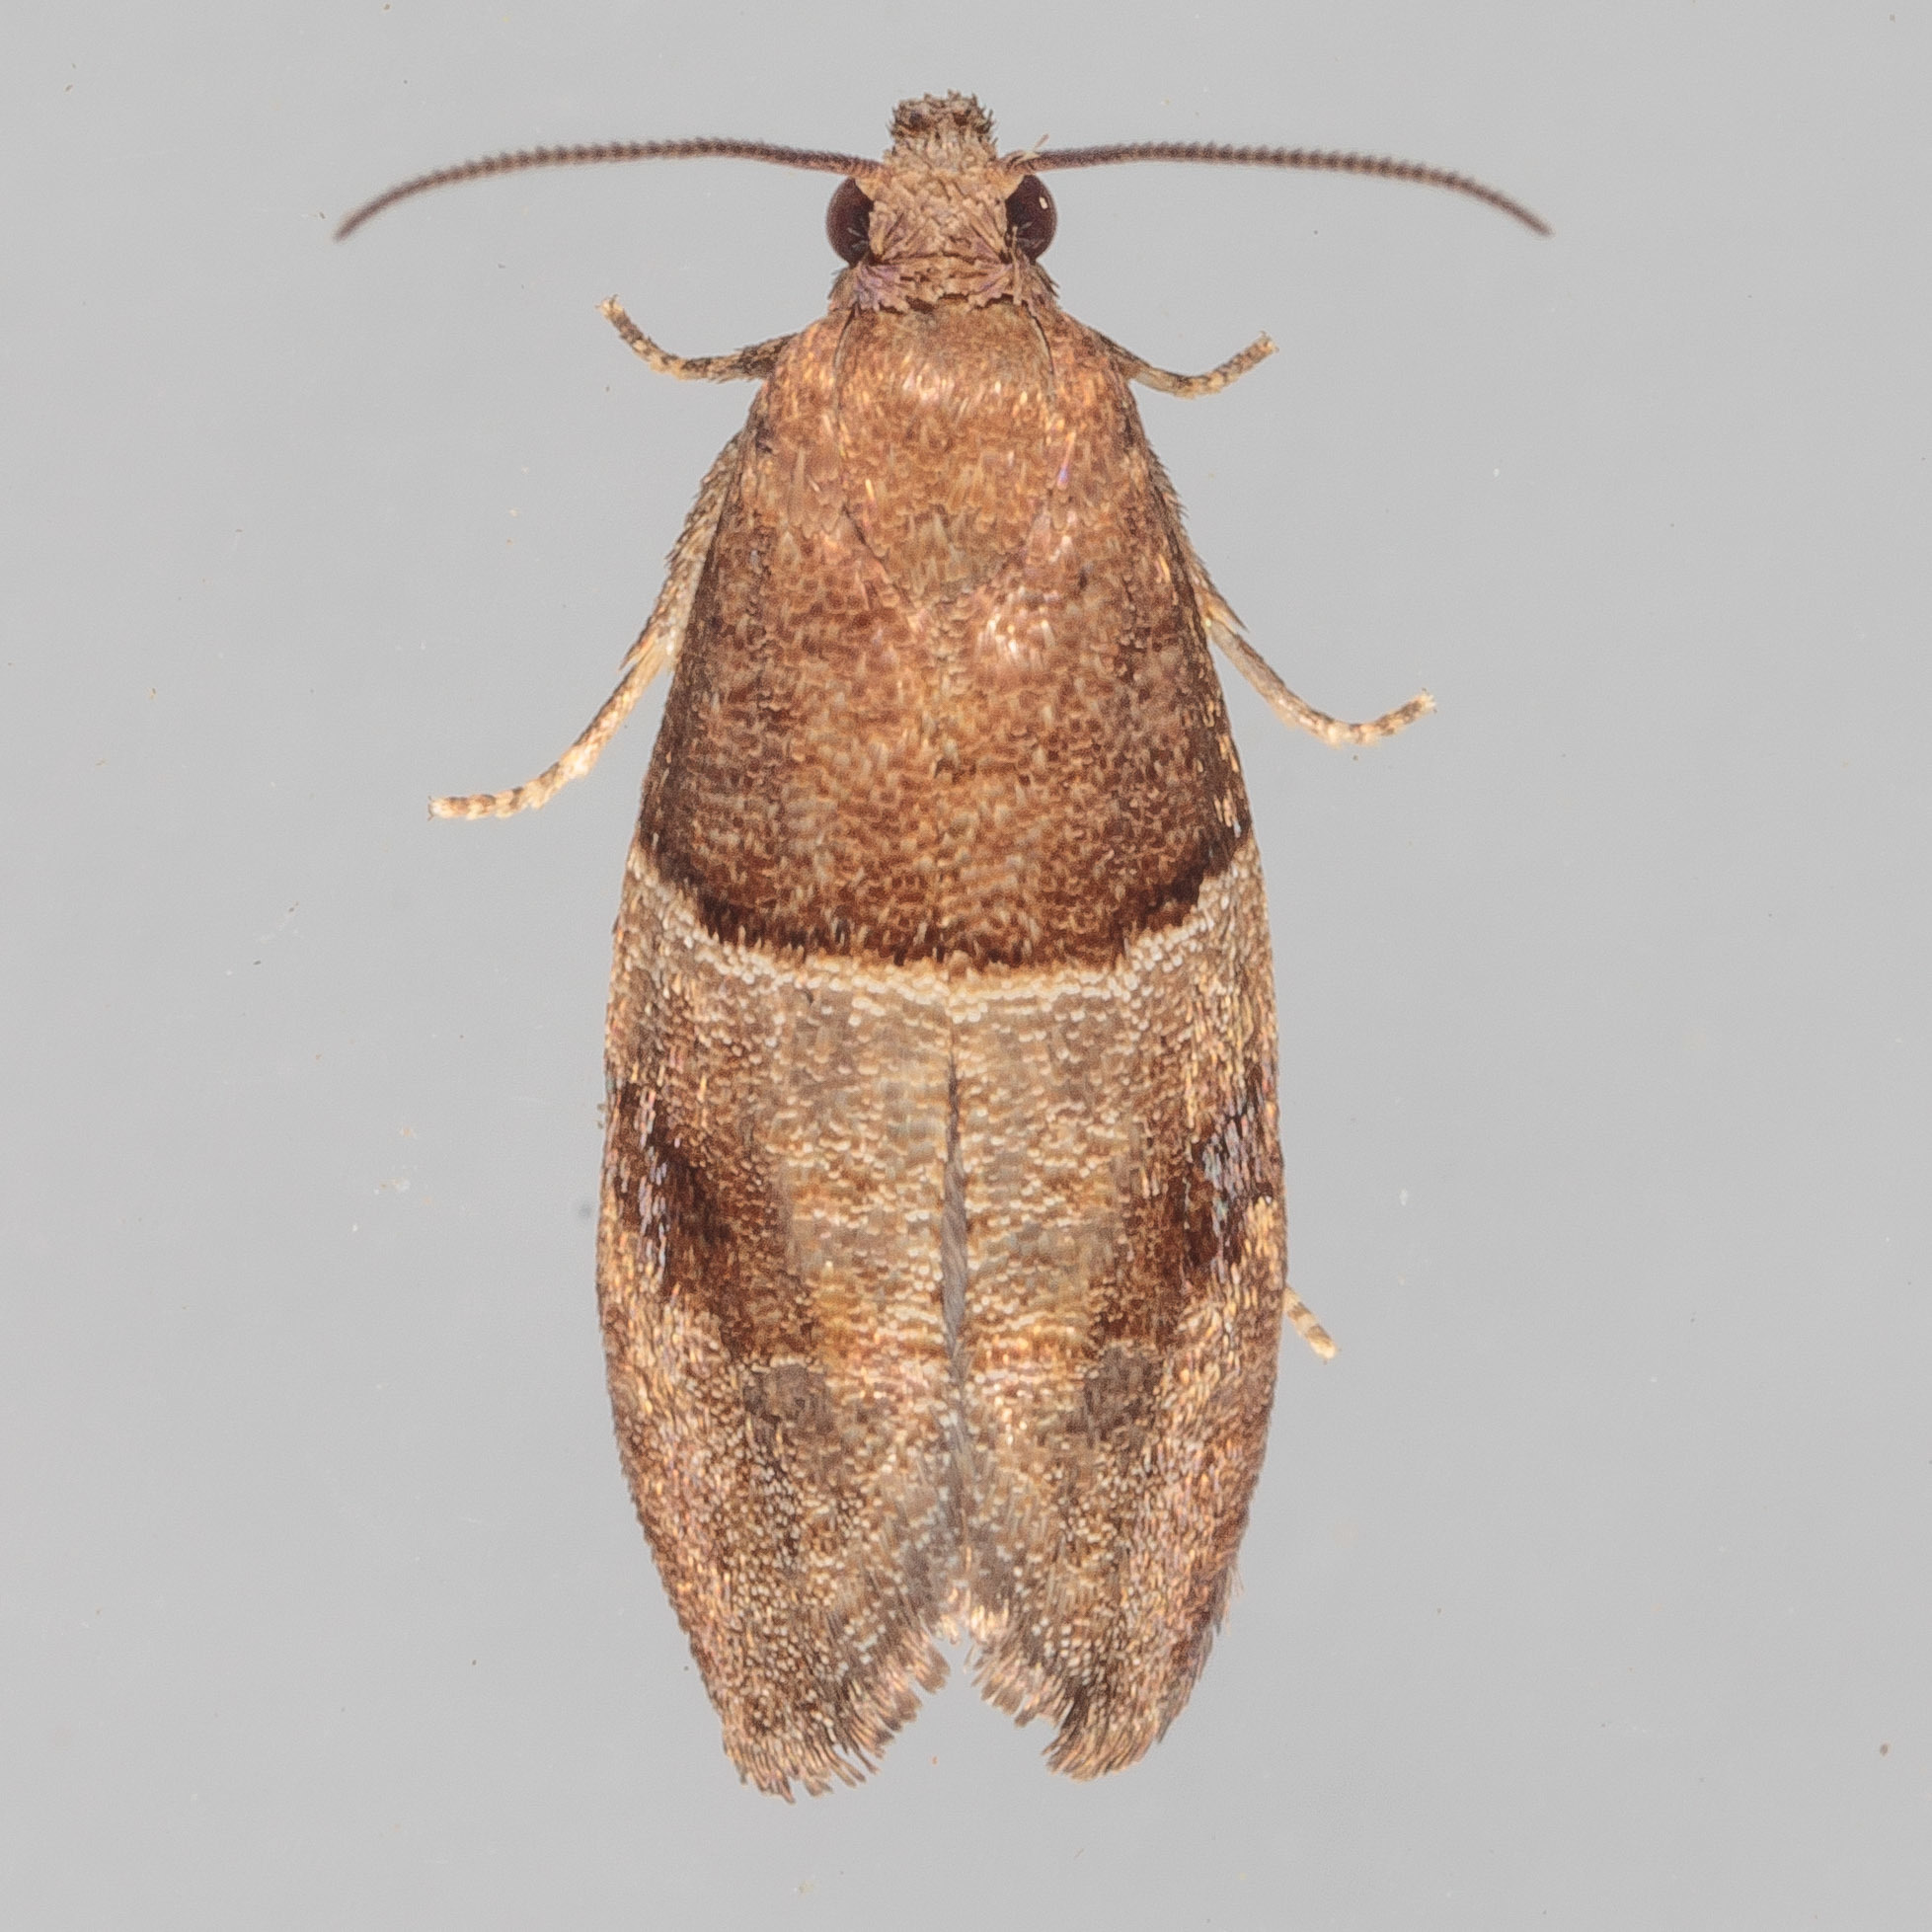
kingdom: Animalia
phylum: Arthropoda
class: Insecta
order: Lepidoptera
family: Tortricidae
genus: Larisa
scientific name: Larisa subsolana
